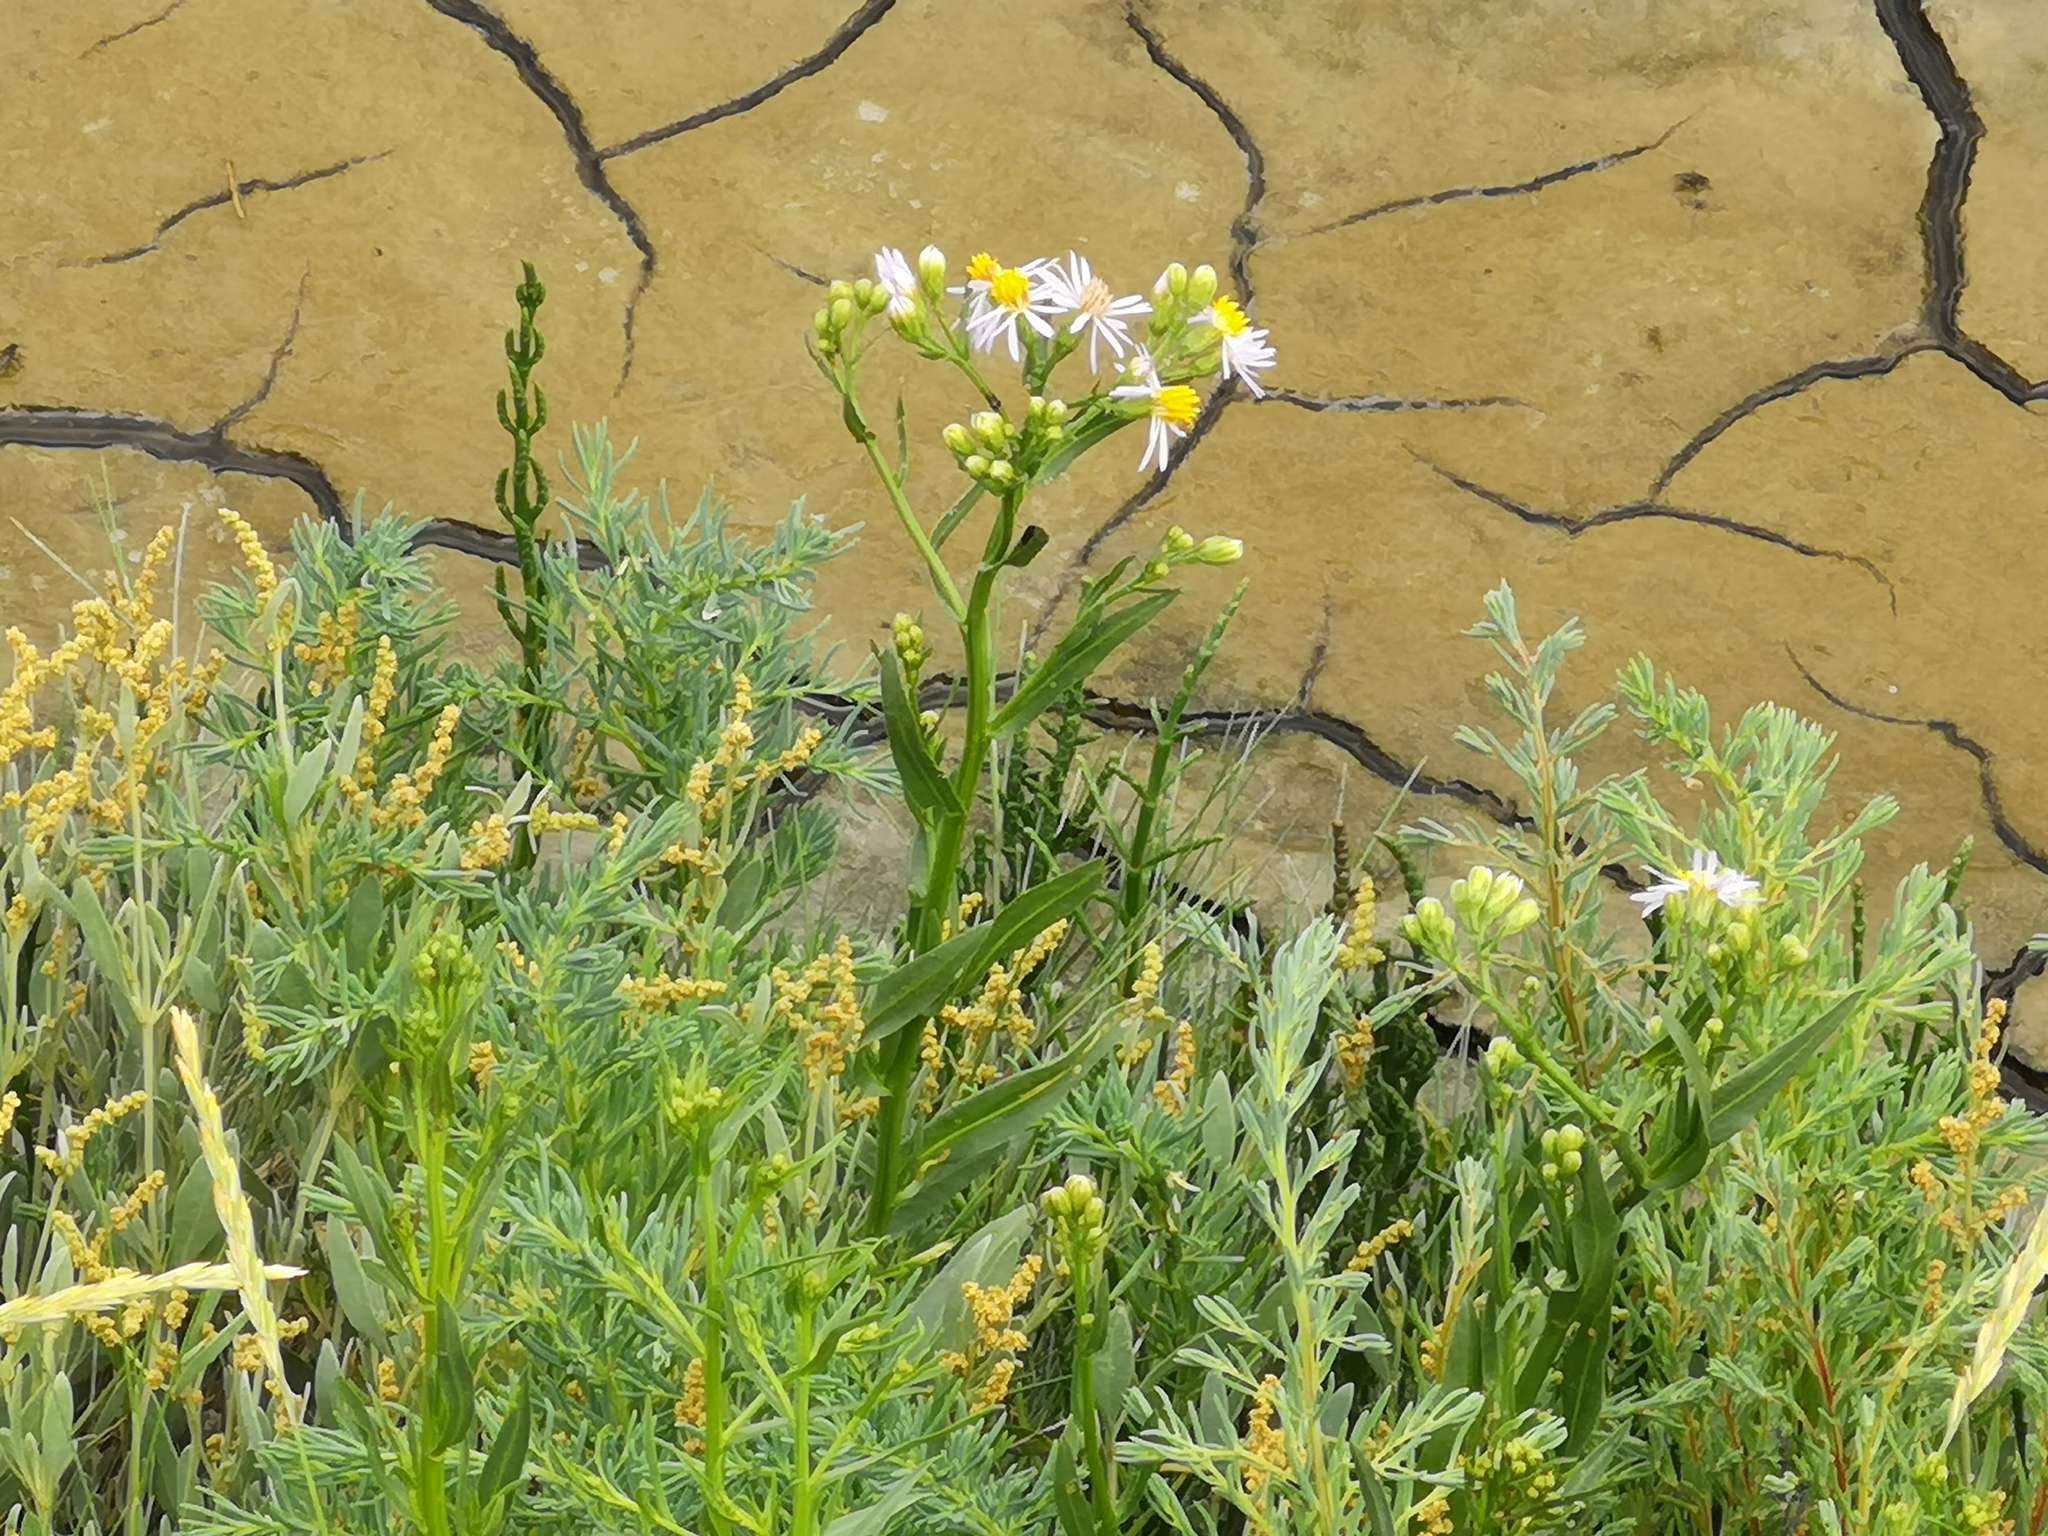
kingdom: Plantae
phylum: Tracheophyta
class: Magnoliopsida
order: Asterales
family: Asteraceae
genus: Tripolium
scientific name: Tripolium pannonicum
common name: Sea aster
